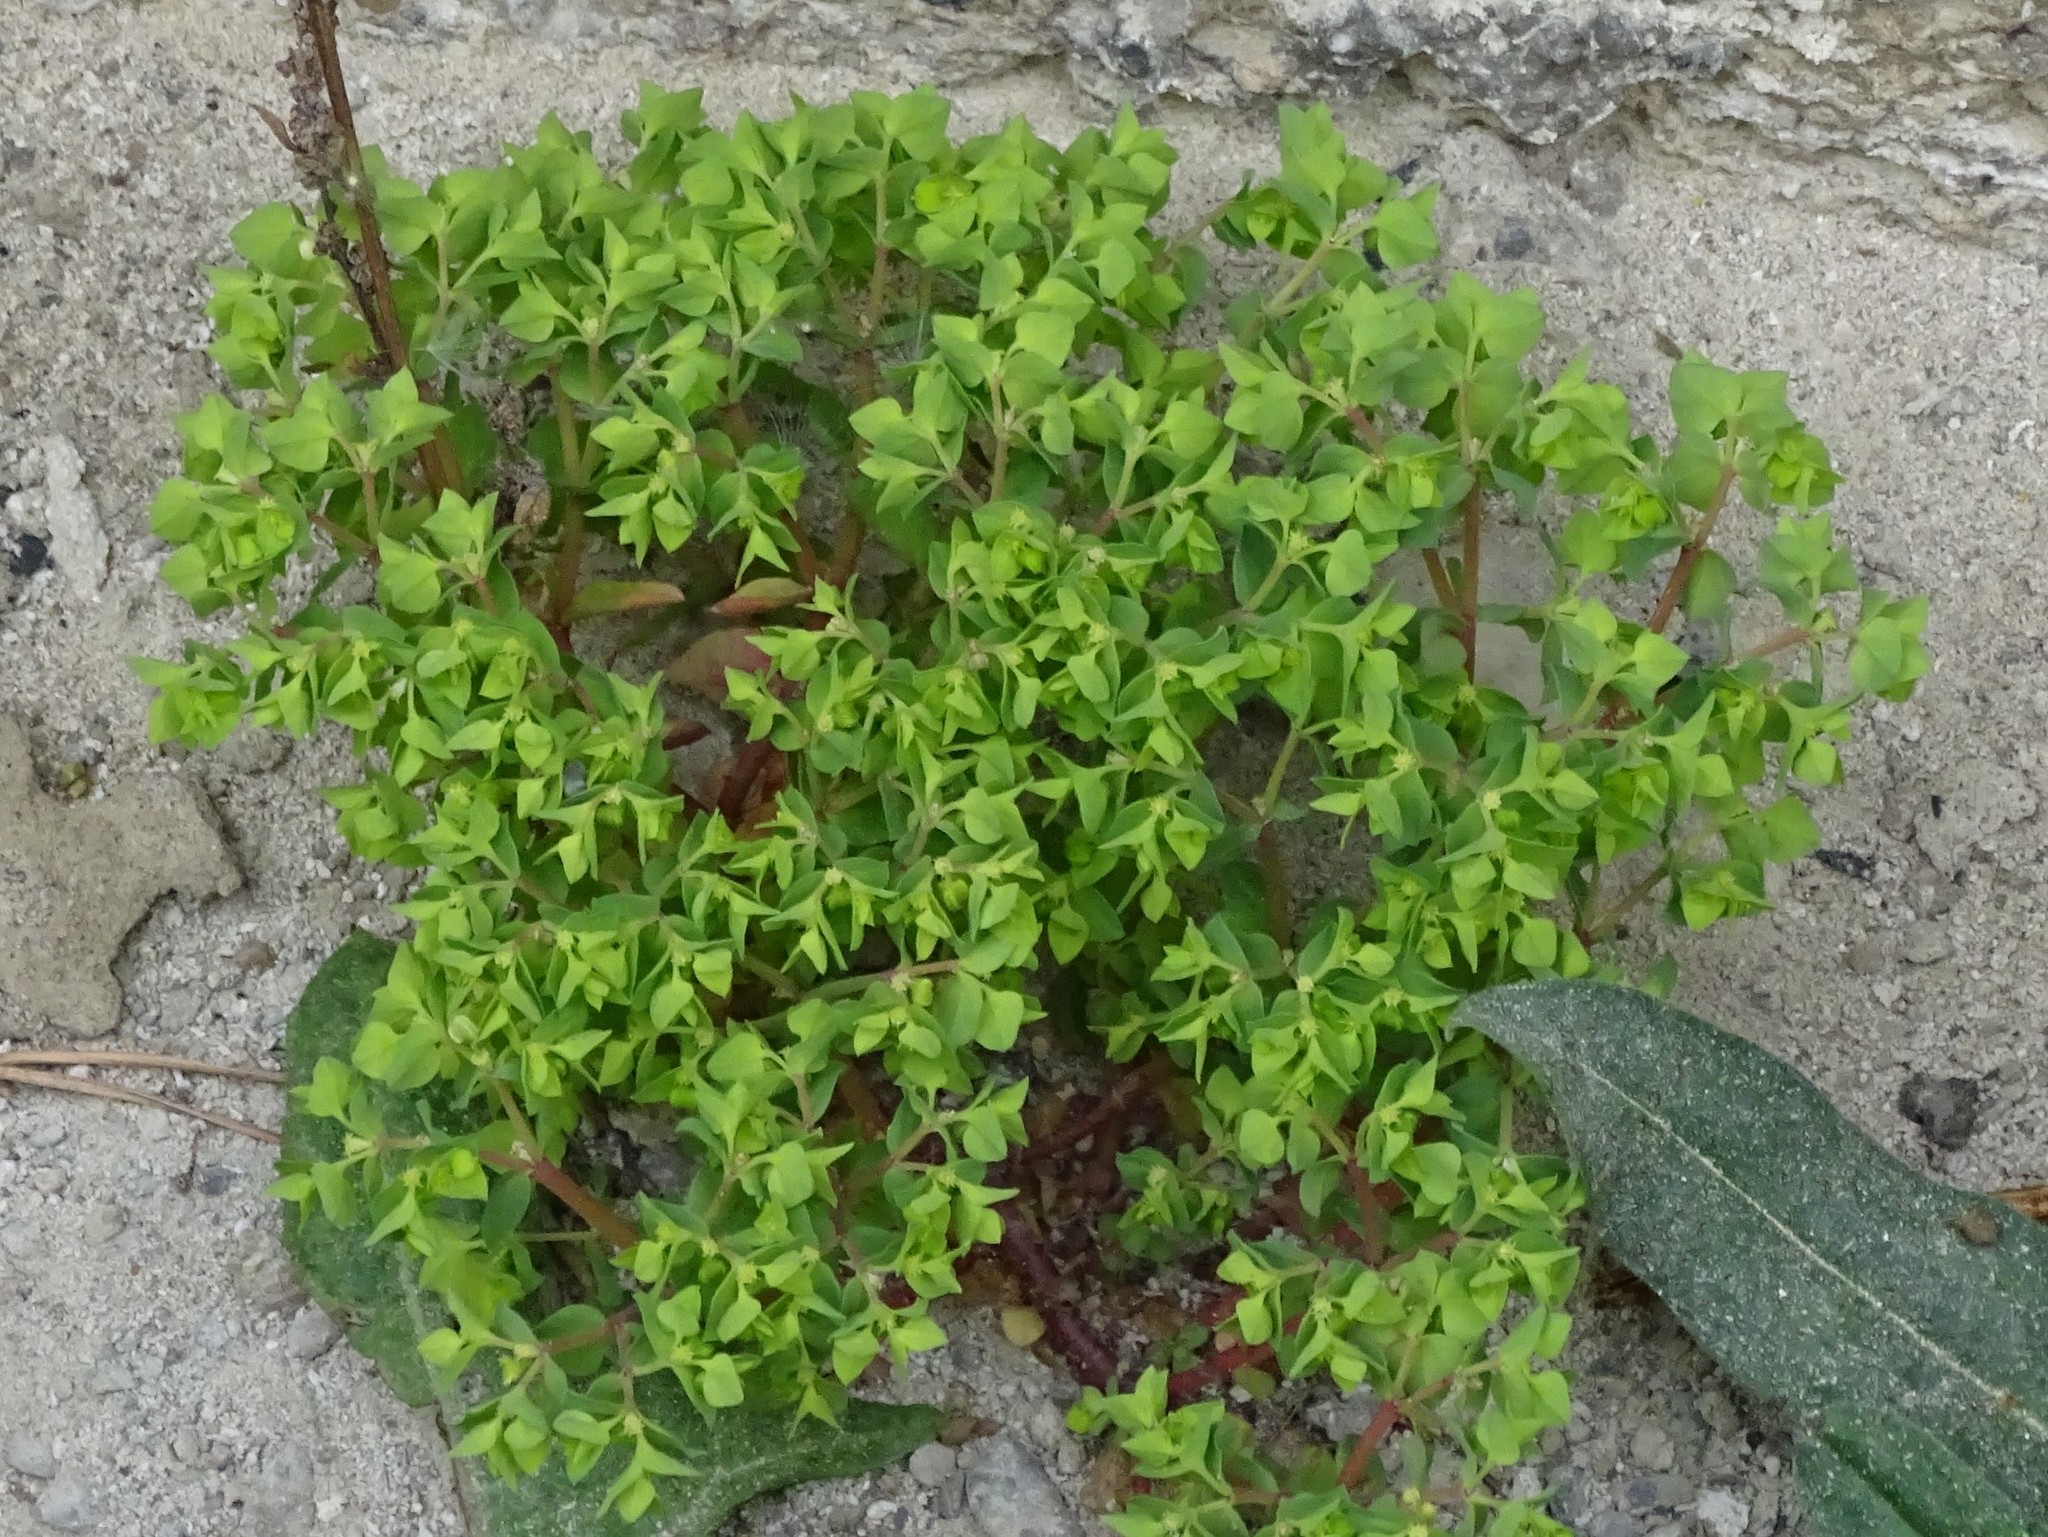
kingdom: Plantae
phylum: Tracheophyta
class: Magnoliopsida
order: Malpighiales
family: Euphorbiaceae
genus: Euphorbia
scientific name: Euphorbia peplus
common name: Petty spurge
